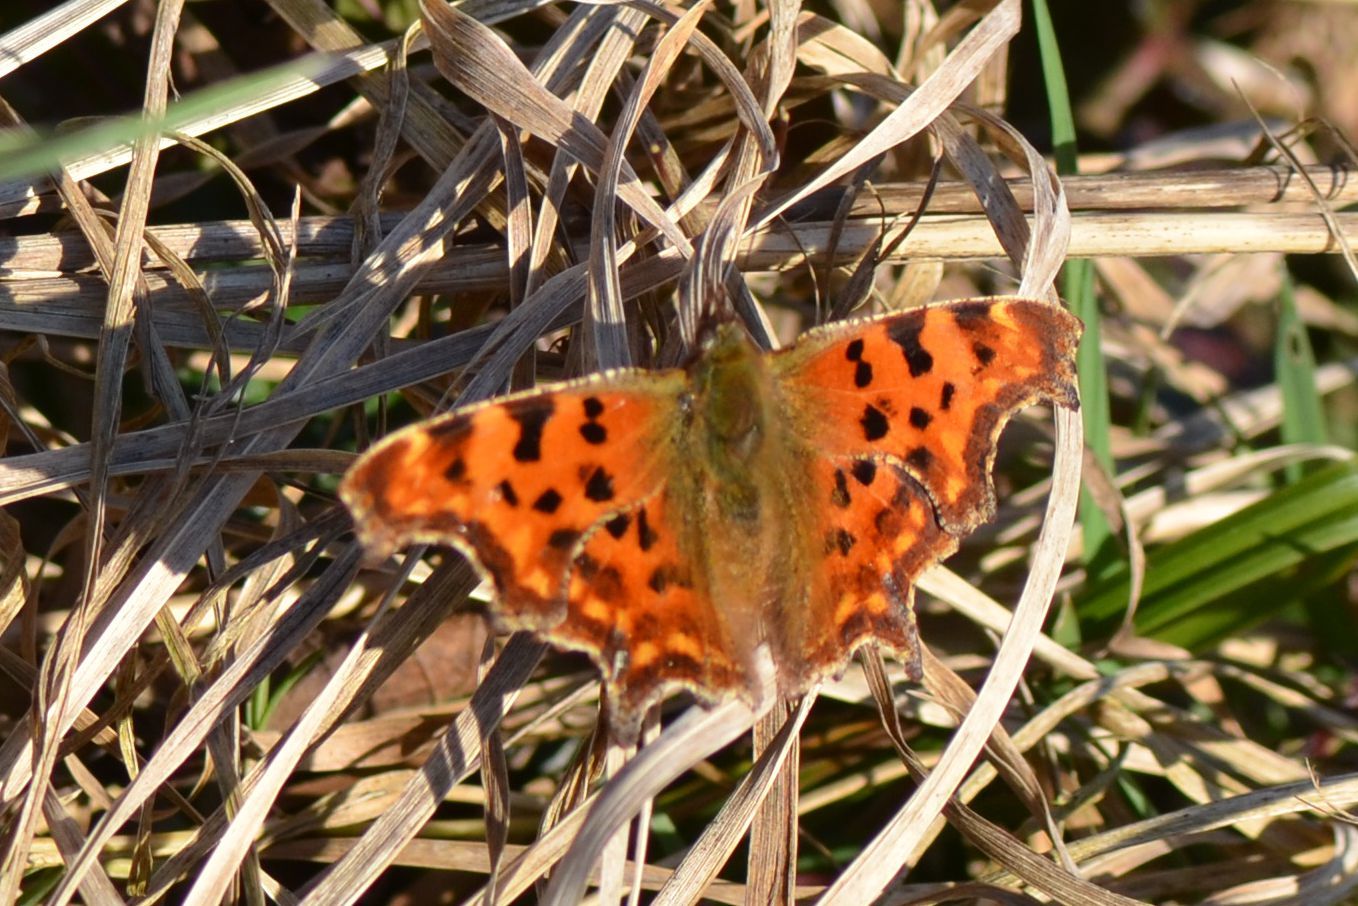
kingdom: Animalia
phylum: Arthropoda
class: Insecta
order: Lepidoptera
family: Nymphalidae
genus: Polygonia
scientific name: Polygonia c-album
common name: Comma
